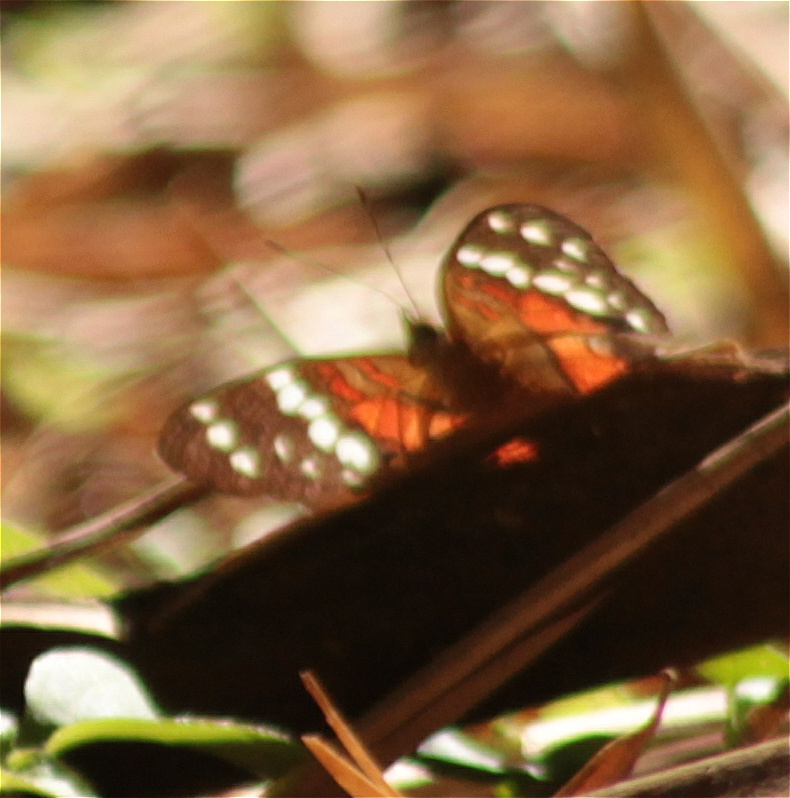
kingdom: Animalia
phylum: Arthropoda
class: Insecta
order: Lepidoptera
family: Nymphalidae
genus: Anartia
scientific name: Anartia amathea
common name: Red peacock
